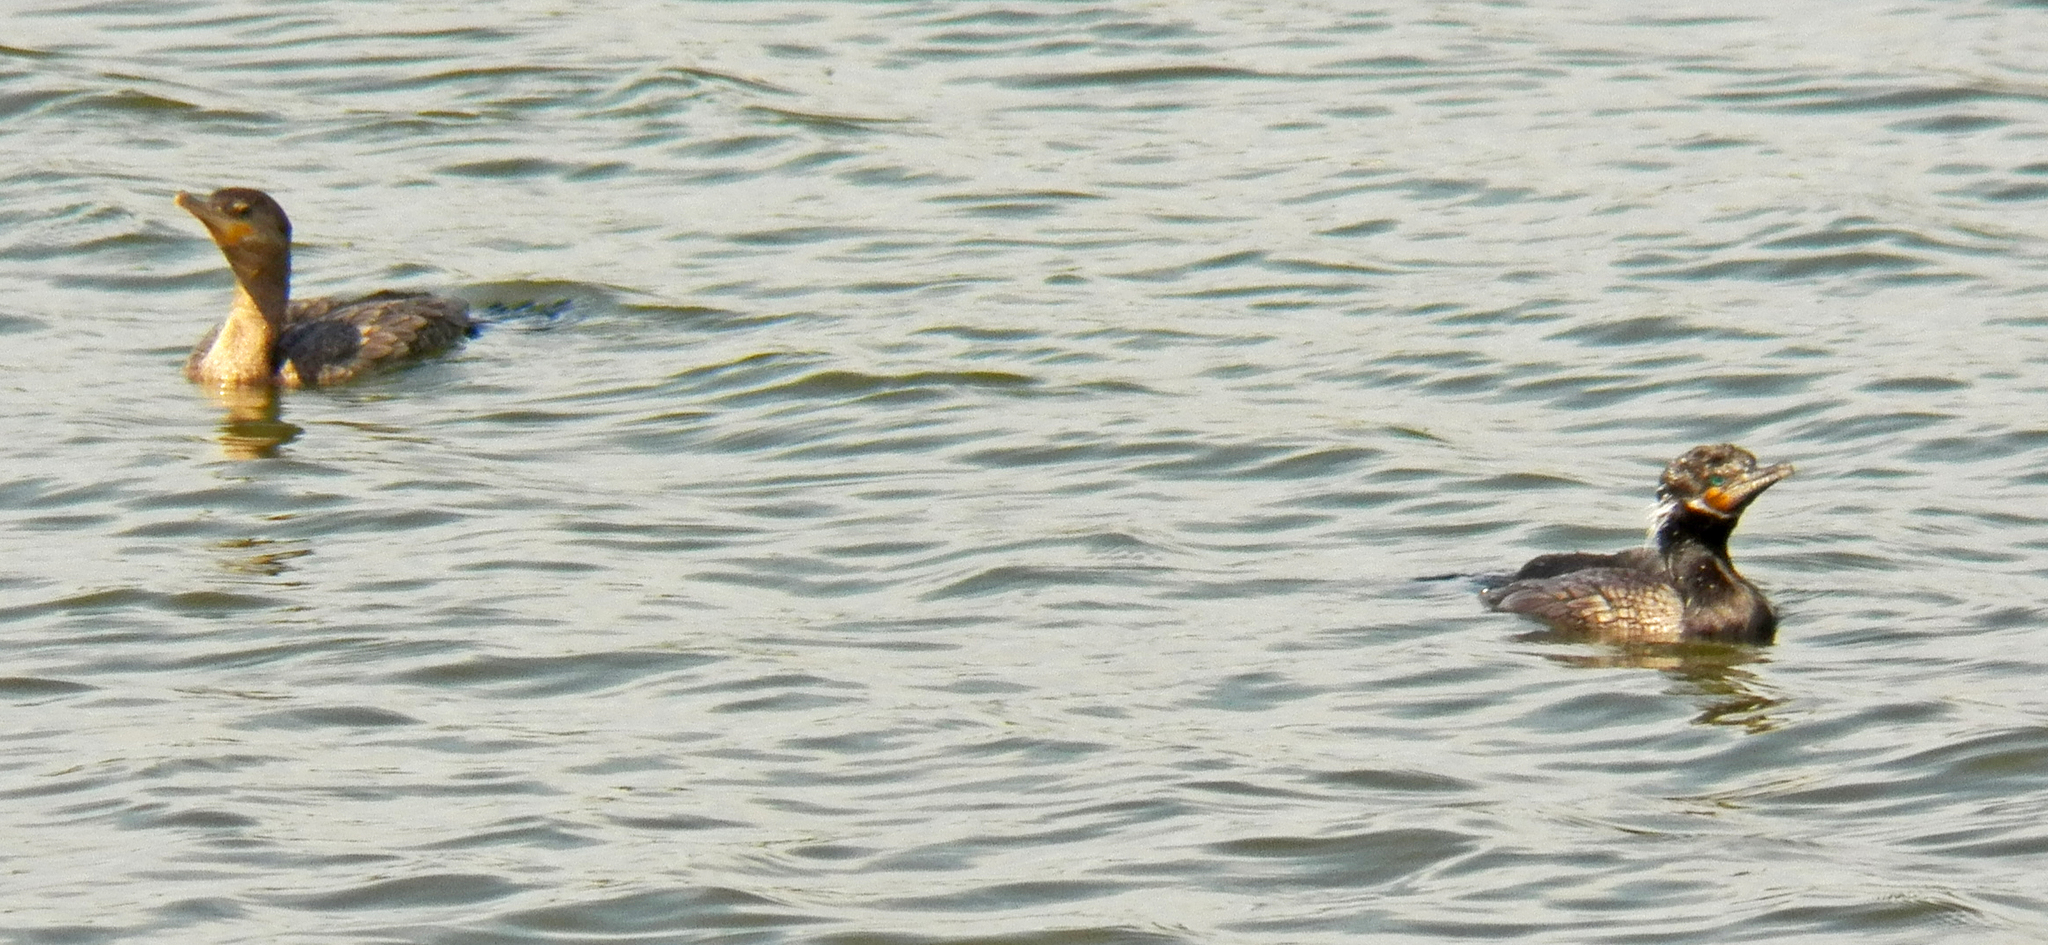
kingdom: Animalia
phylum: Chordata
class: Aves
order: Suliformes
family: Phalacrocoracidae
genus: Phalacrocorax
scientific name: Phalacrocorax brasilianus
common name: Neotropic cormorant
